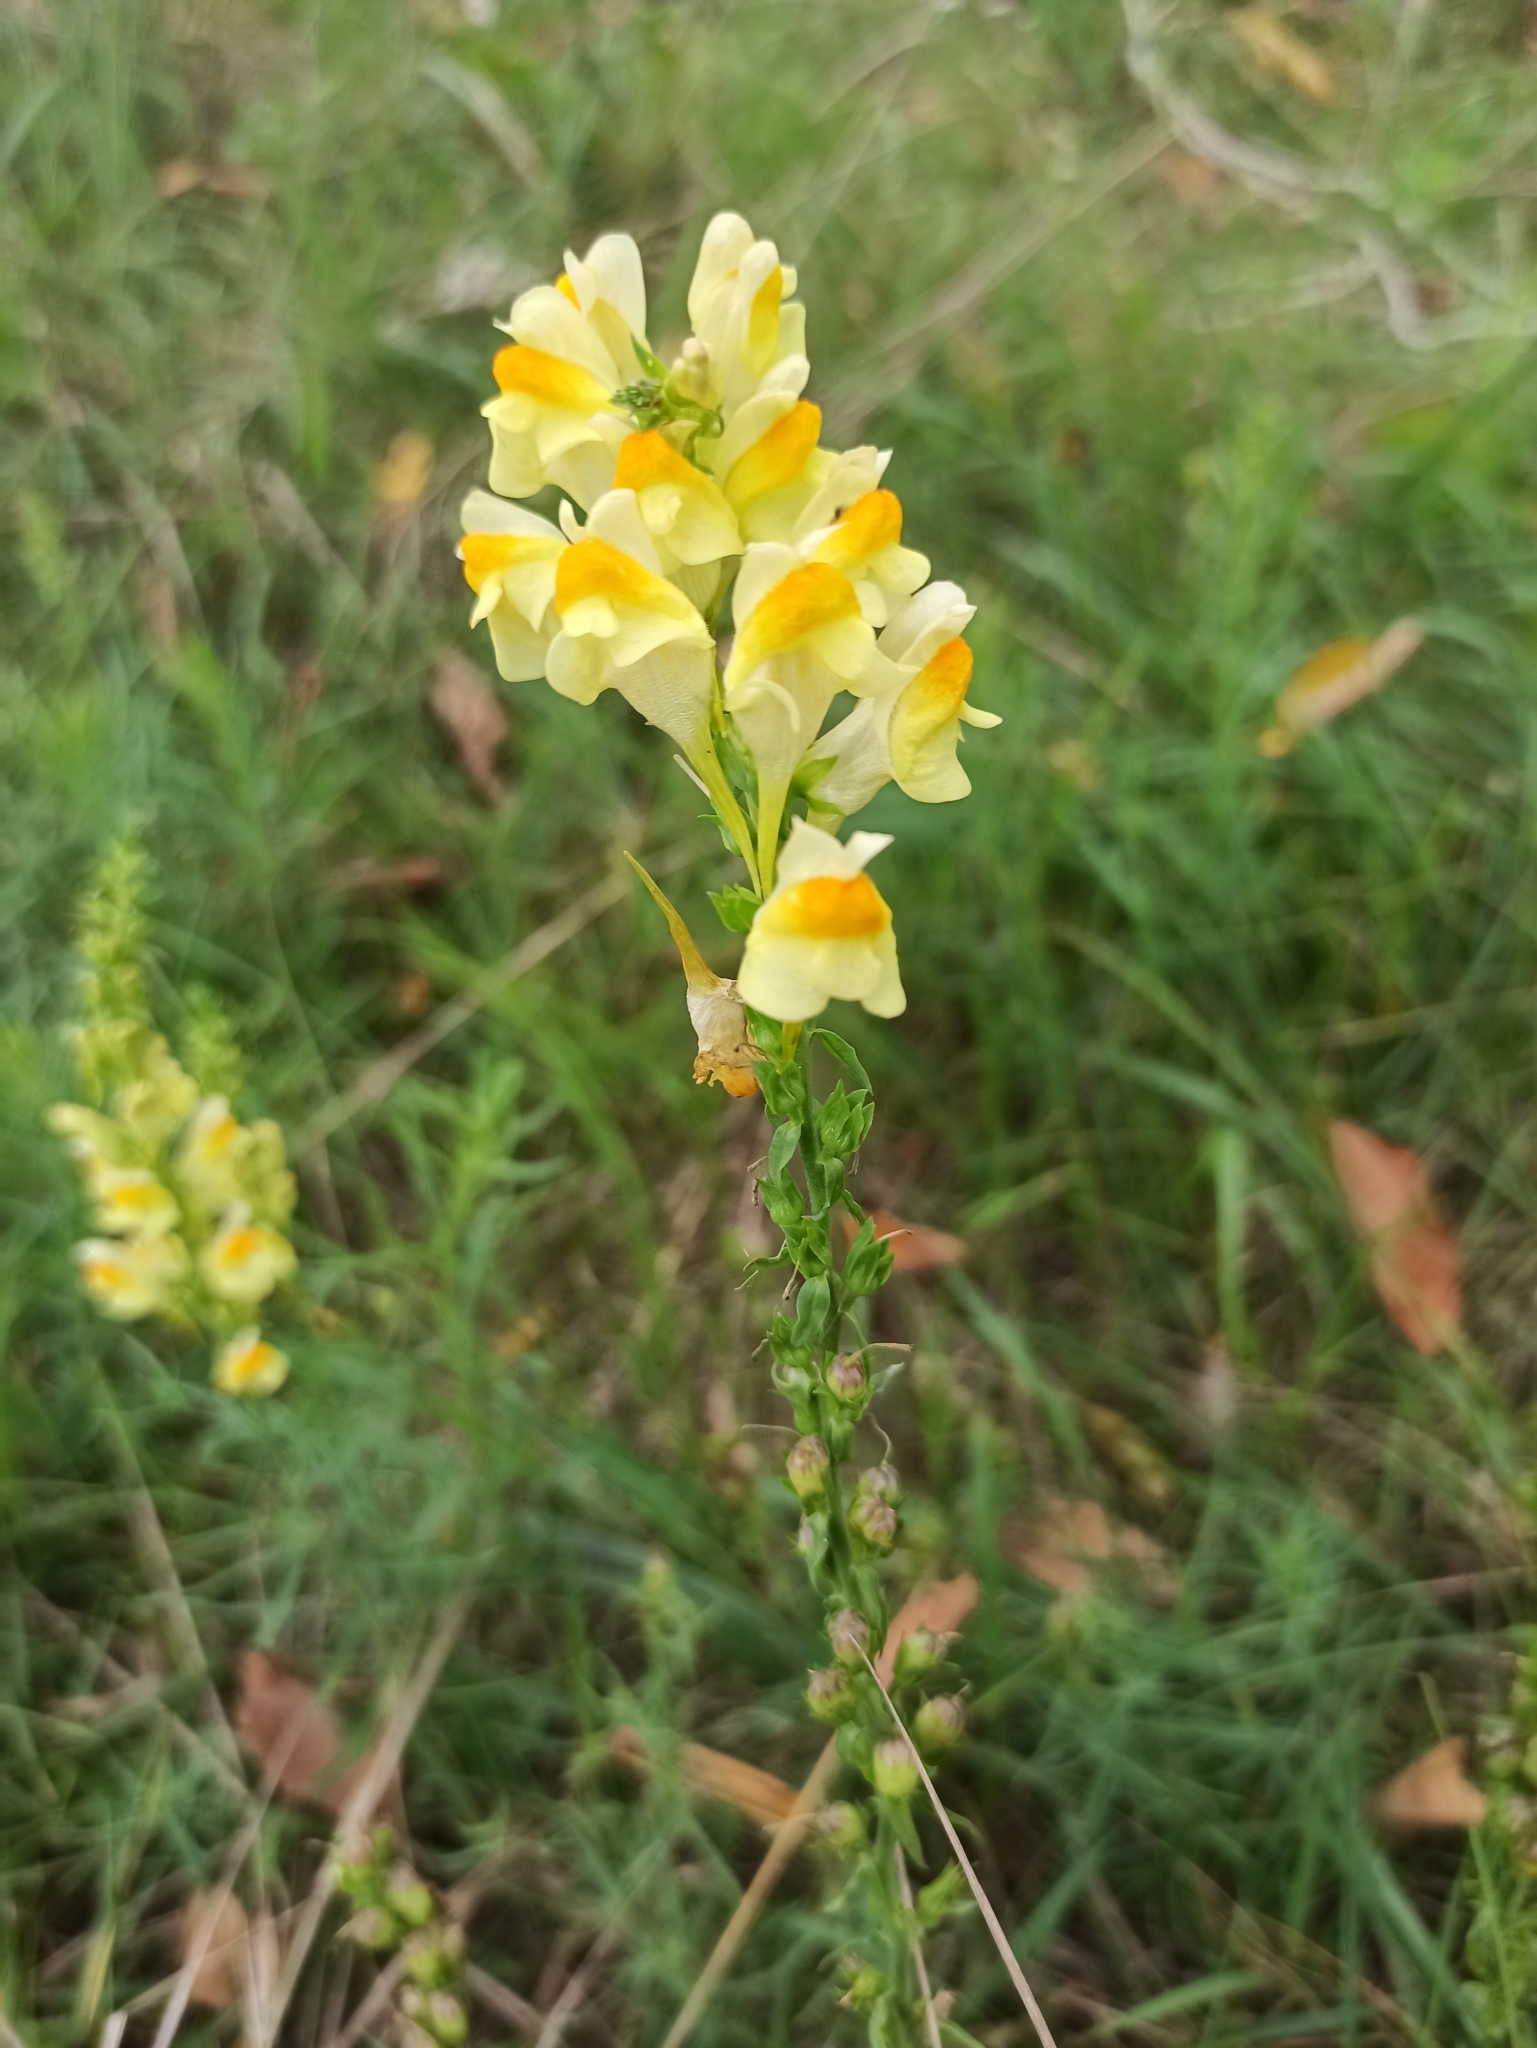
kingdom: Plantae
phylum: Tracheophyta
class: Magnoliopsida
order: Lamiales
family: Plantaginaceae
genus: Linaria
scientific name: Linaria vulgaris
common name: Butter and eggs
